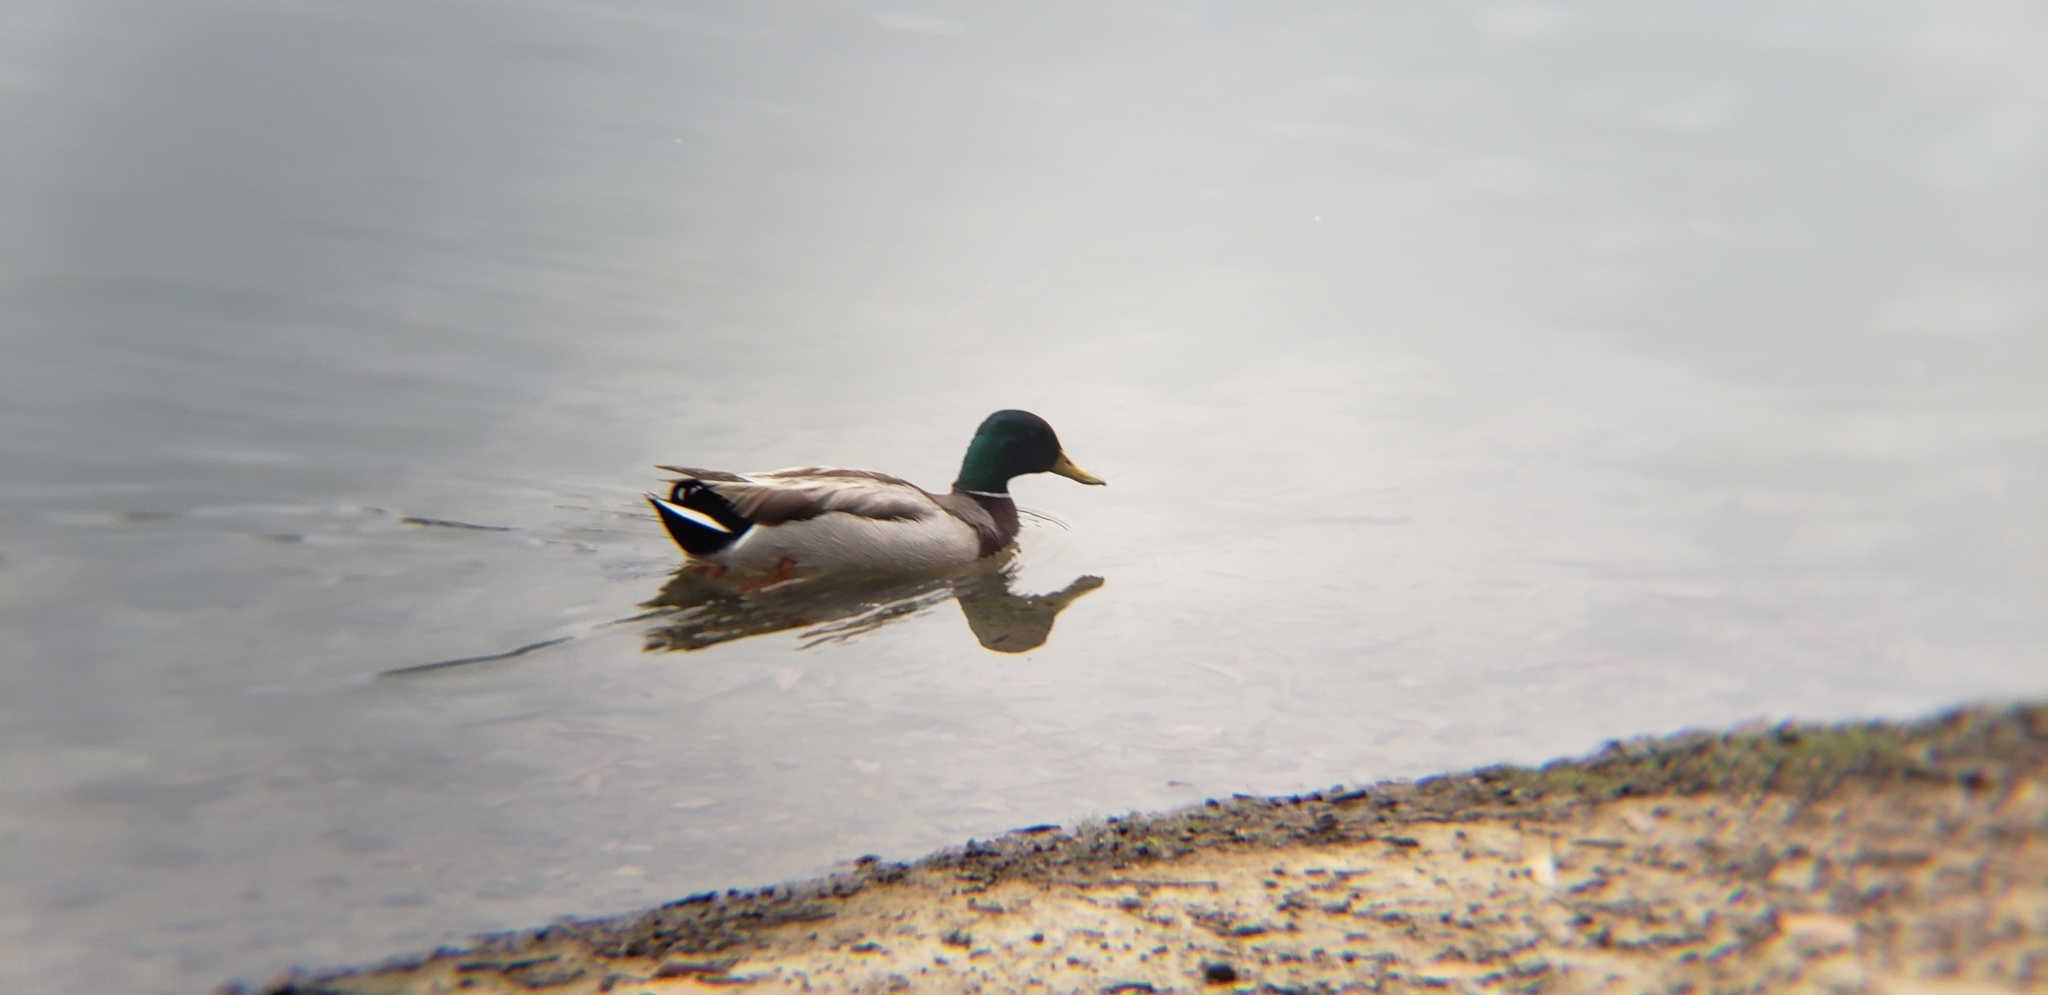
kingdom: Animalia
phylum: Chordata
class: Aves
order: Anseriformes
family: Anatidae
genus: Anas
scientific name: Anas platyrhynchos
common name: Mallard
